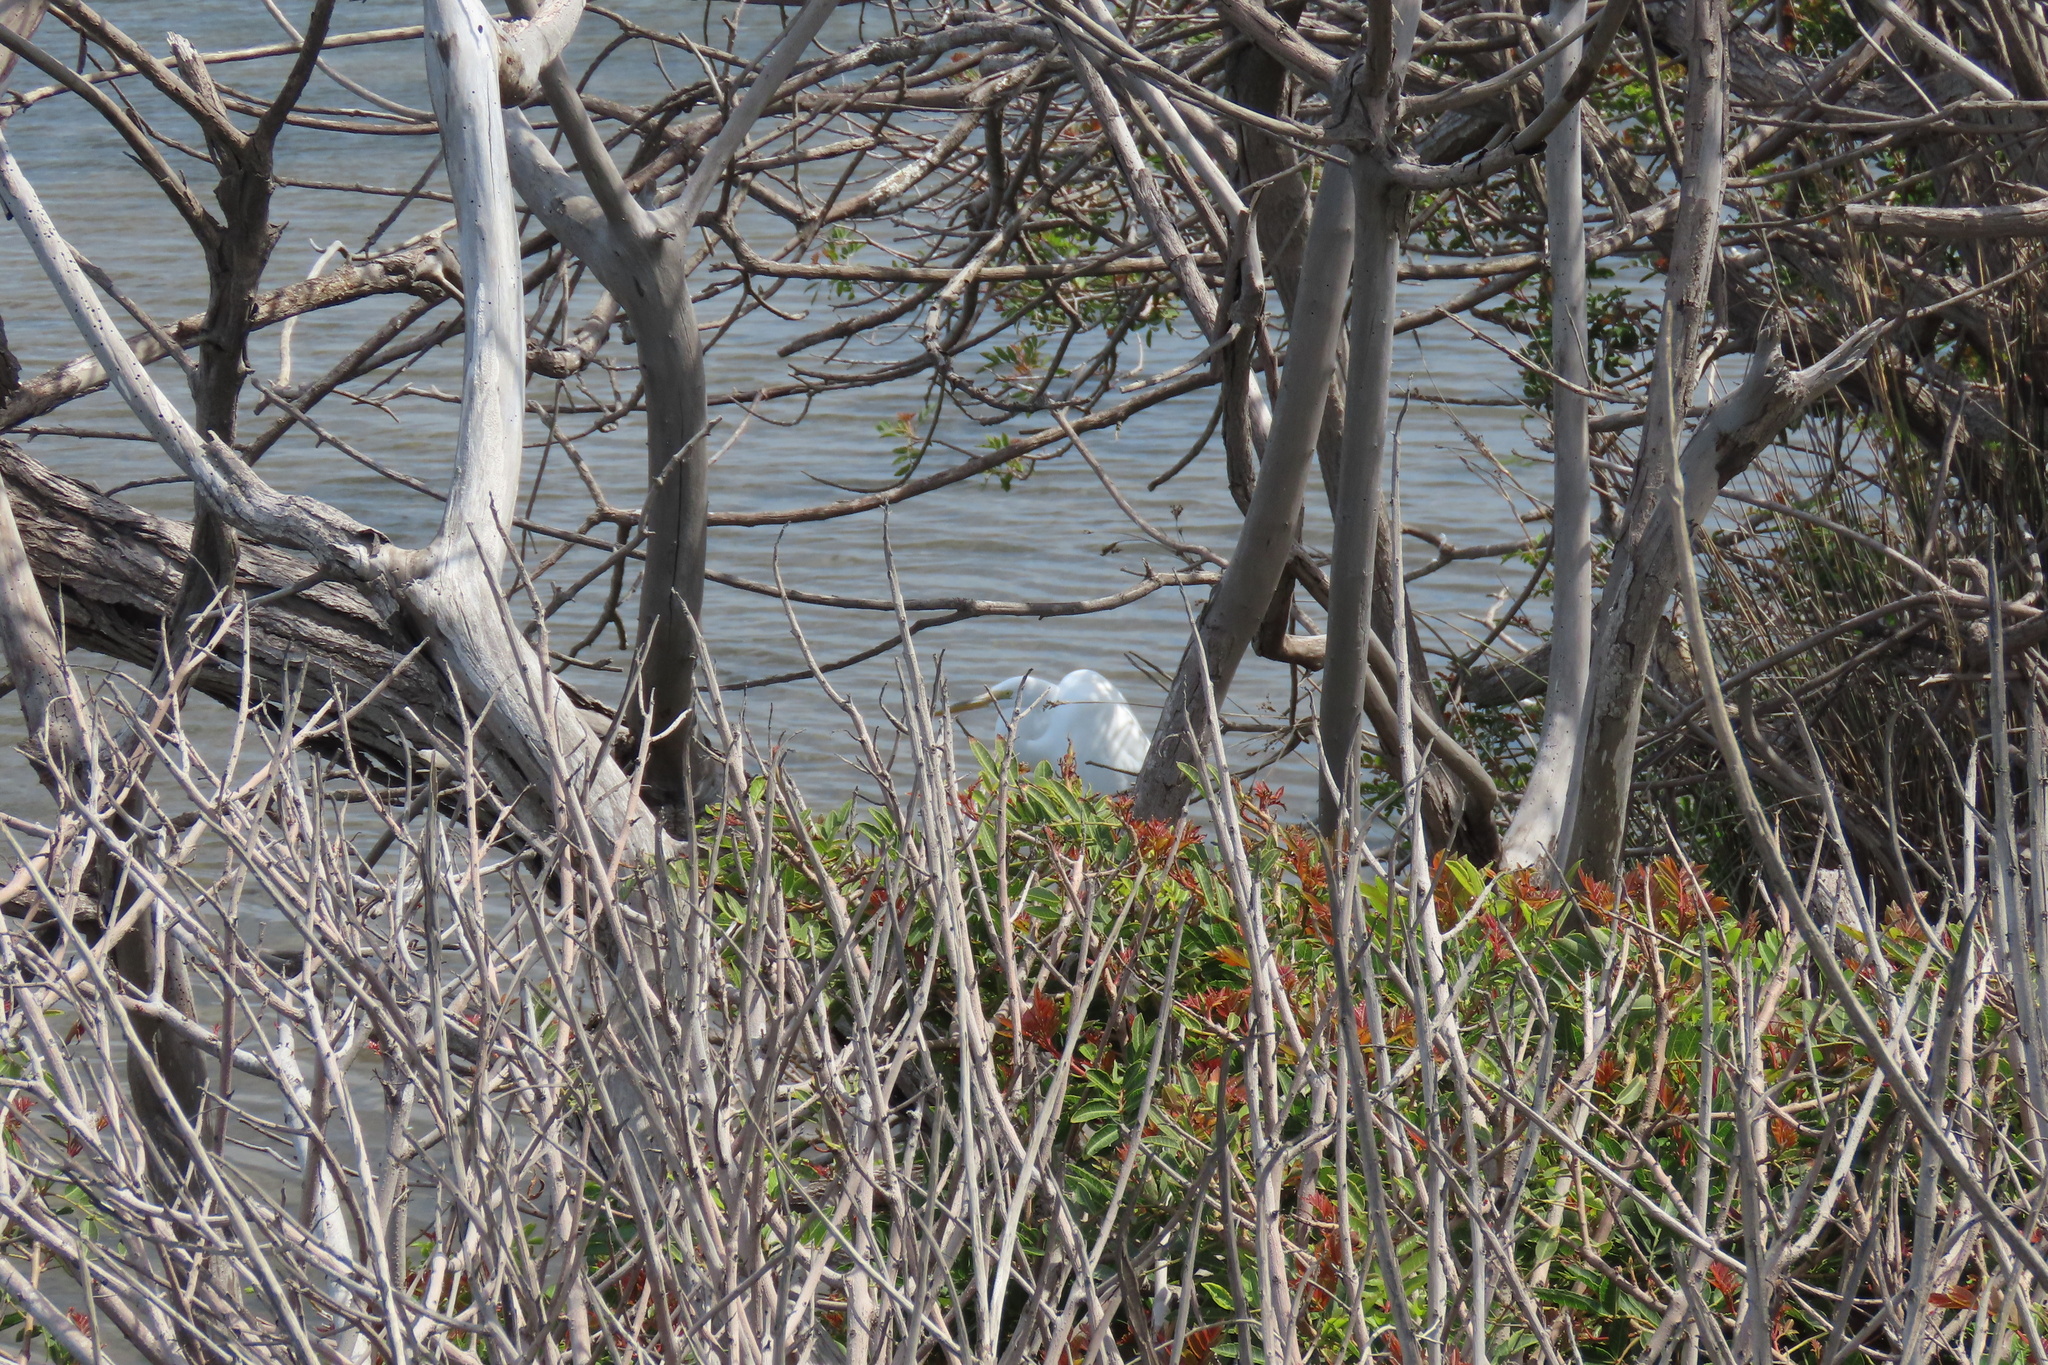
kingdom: Animalia
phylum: Chordata
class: Aves
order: Pelecaniformes
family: Ardeidae
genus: Ardea
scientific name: Ardea alba
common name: Great egret
